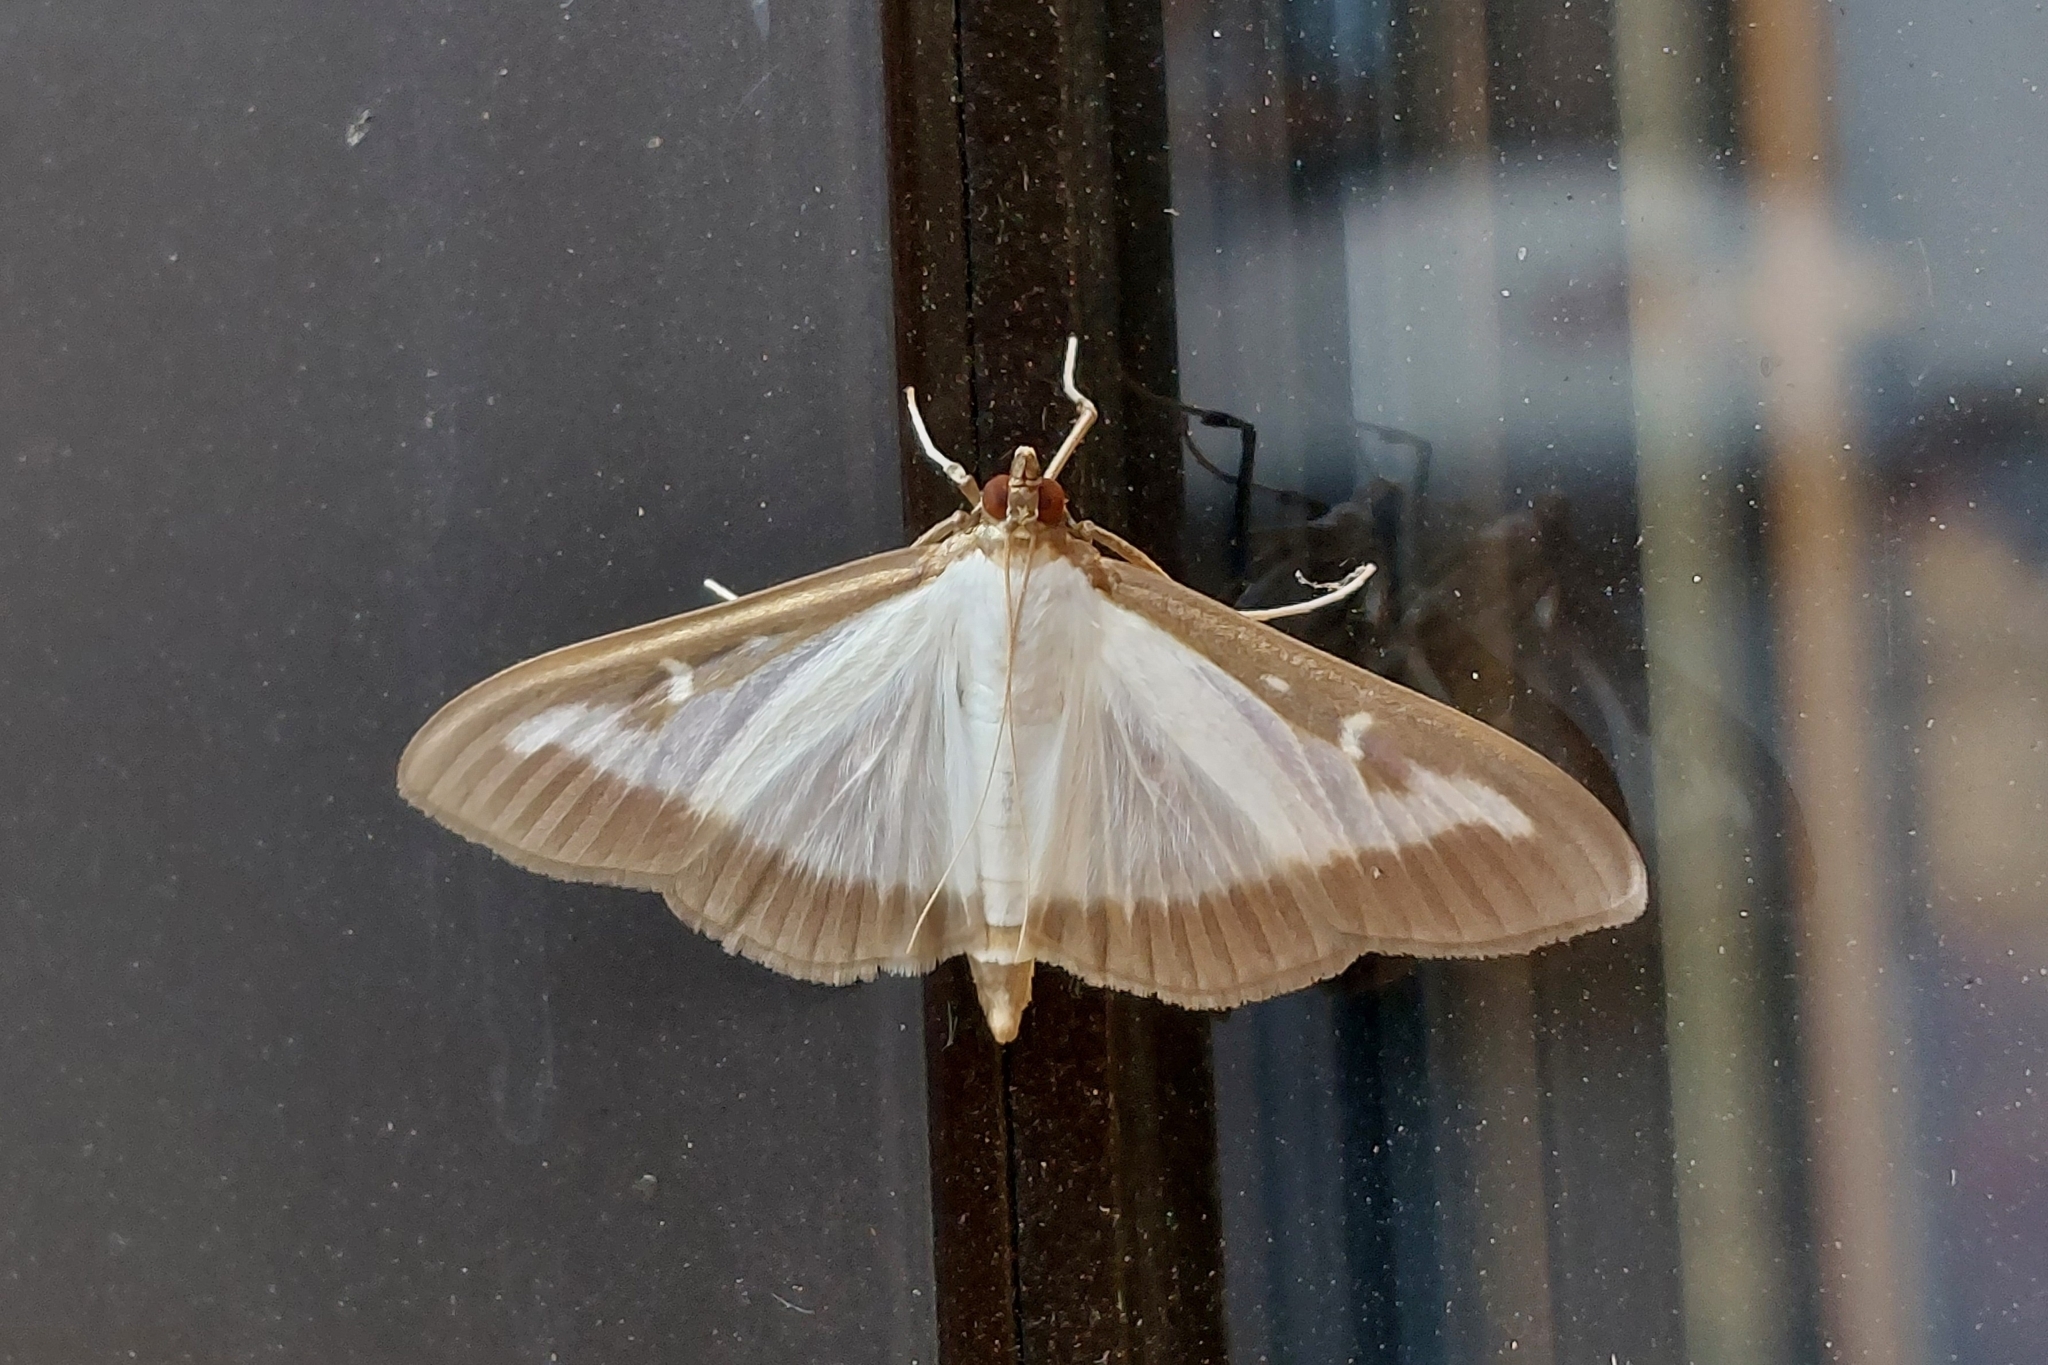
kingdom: Animalia
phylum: Arthropoda
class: Insecta
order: Lepidoptera
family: Crambidae
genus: Cydalima
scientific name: Cydalima perspectalis
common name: Box tree moth
